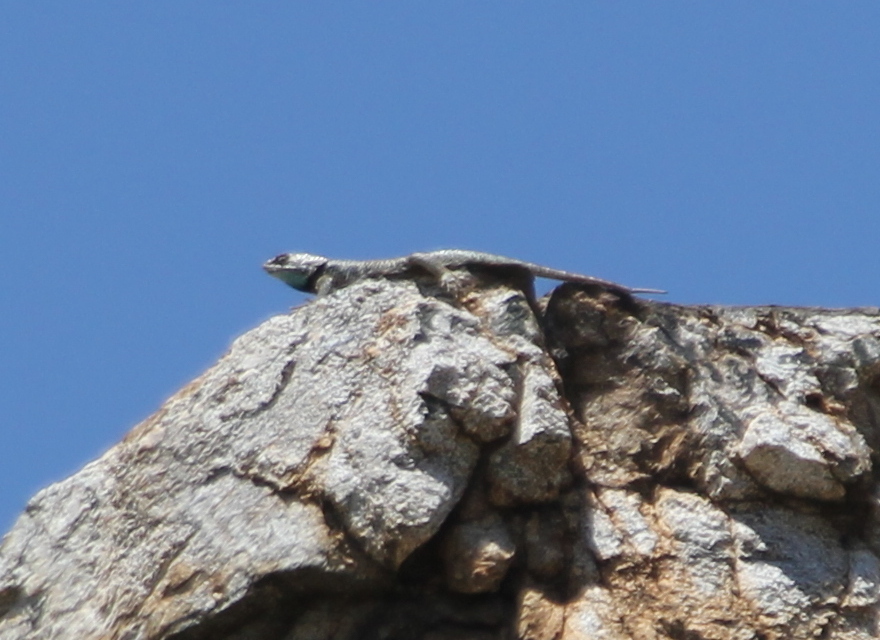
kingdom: Animalia
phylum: Chordata
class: Squamata
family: Phrynosomatidae
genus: Sceloporus
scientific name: Sceloporus uniformis
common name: Yellow-backed spiny lizard
